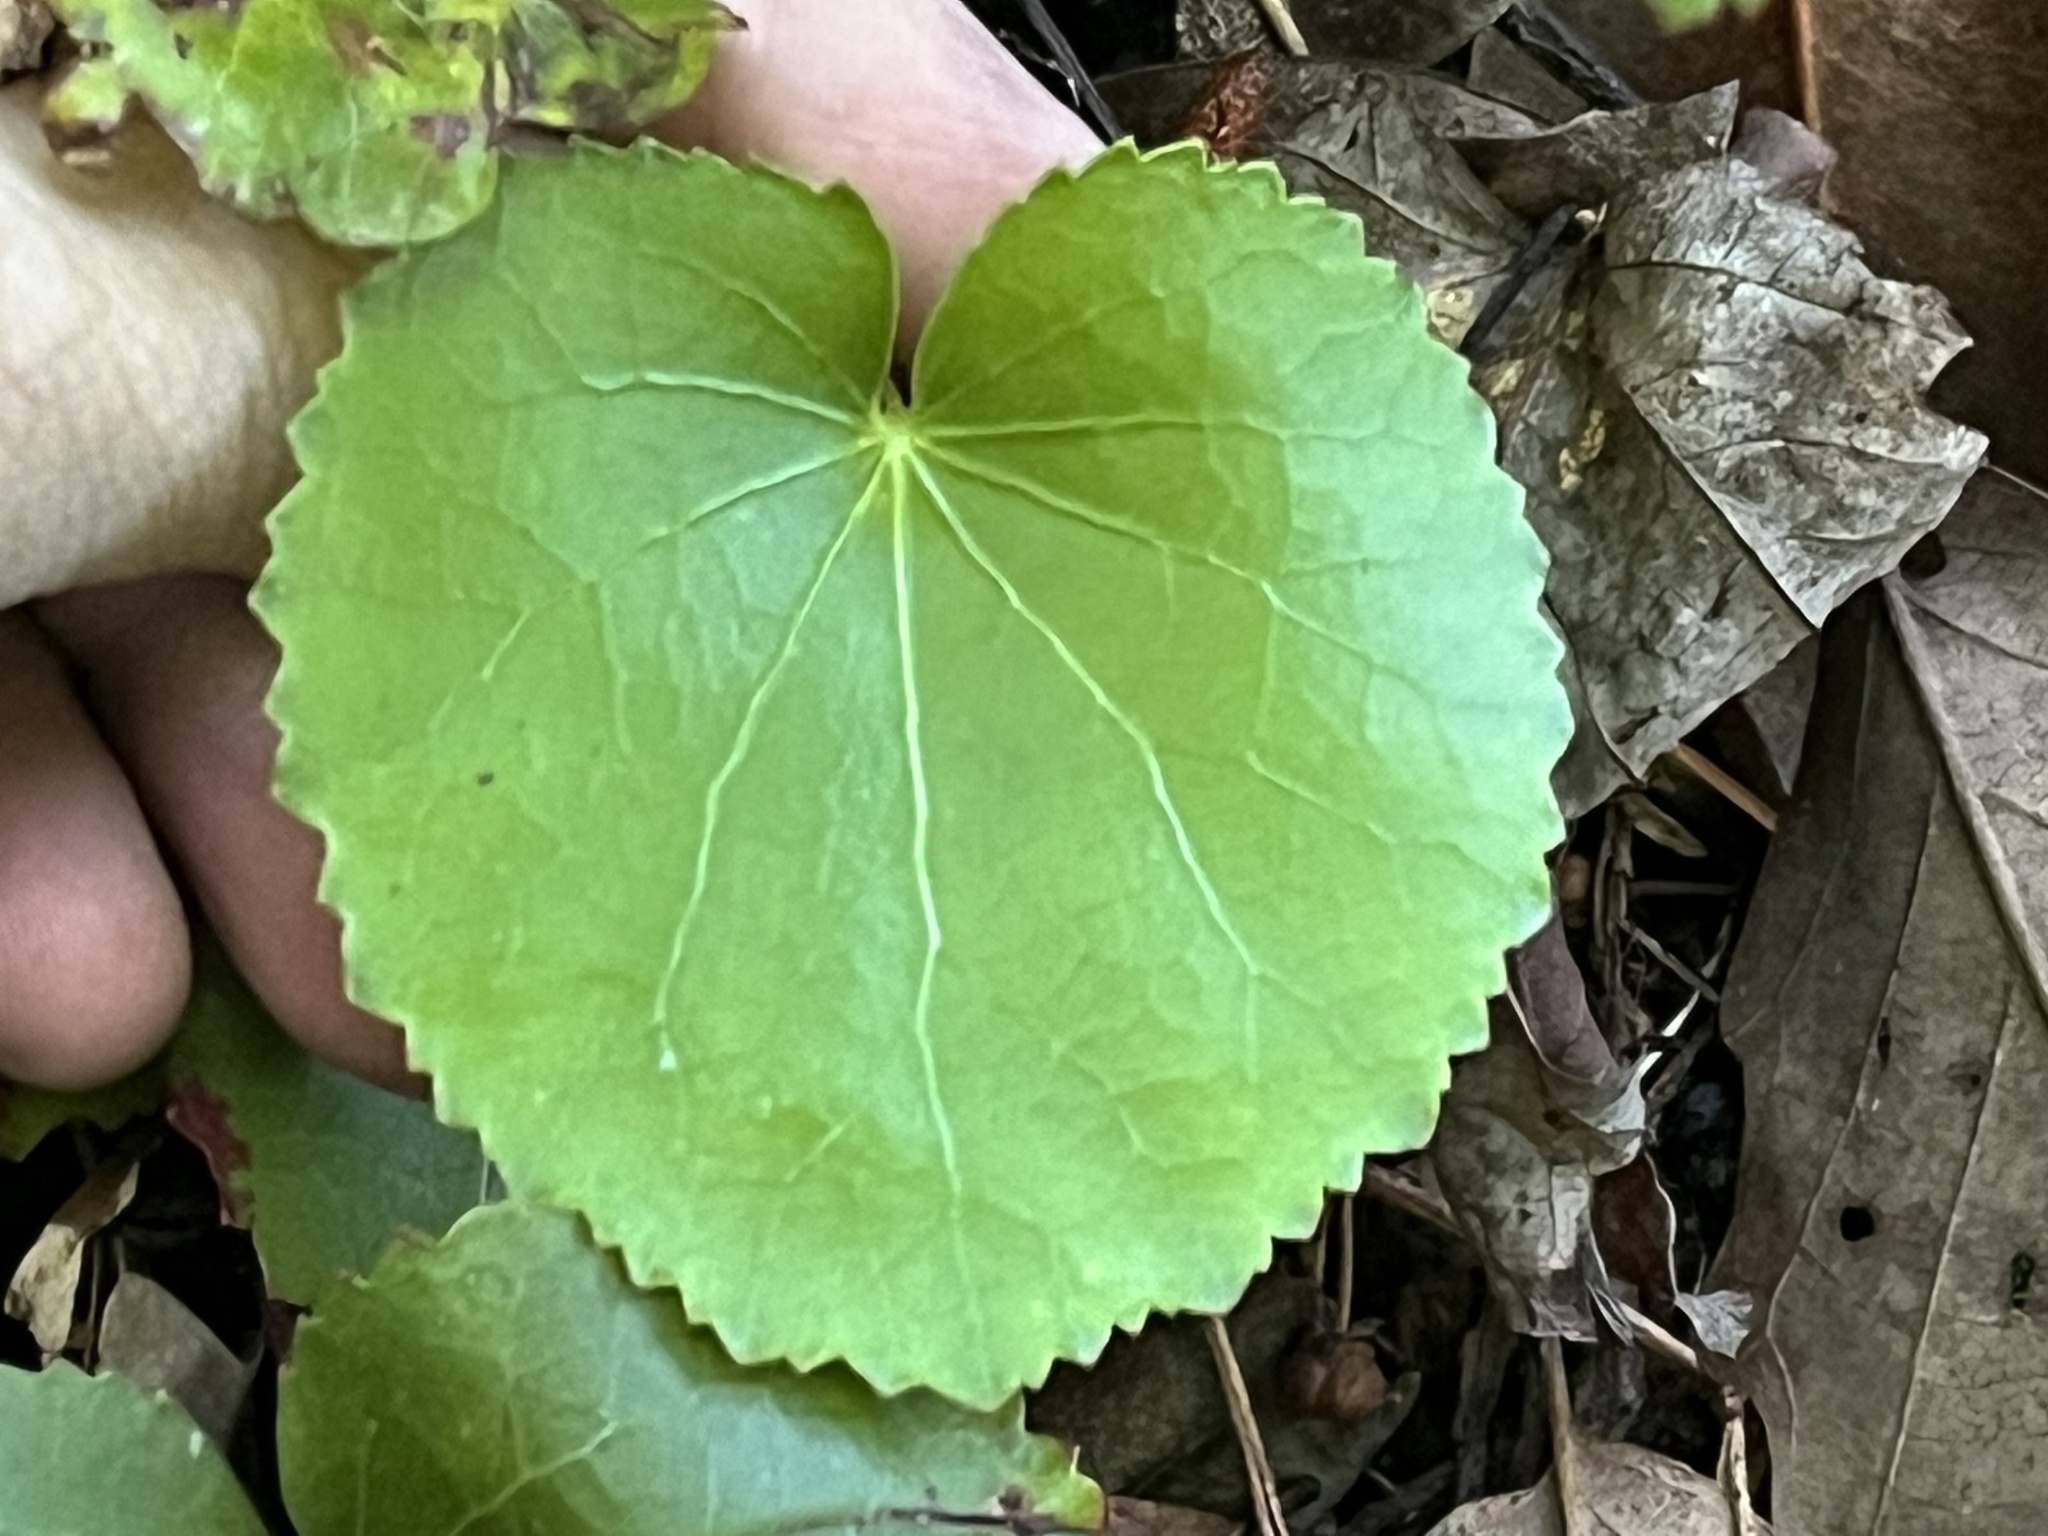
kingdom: Plantae
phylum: Tracheophyta
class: Magnoliopsida
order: Ericales
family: Diapensiaceae
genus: Galax
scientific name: Galax urceolata
